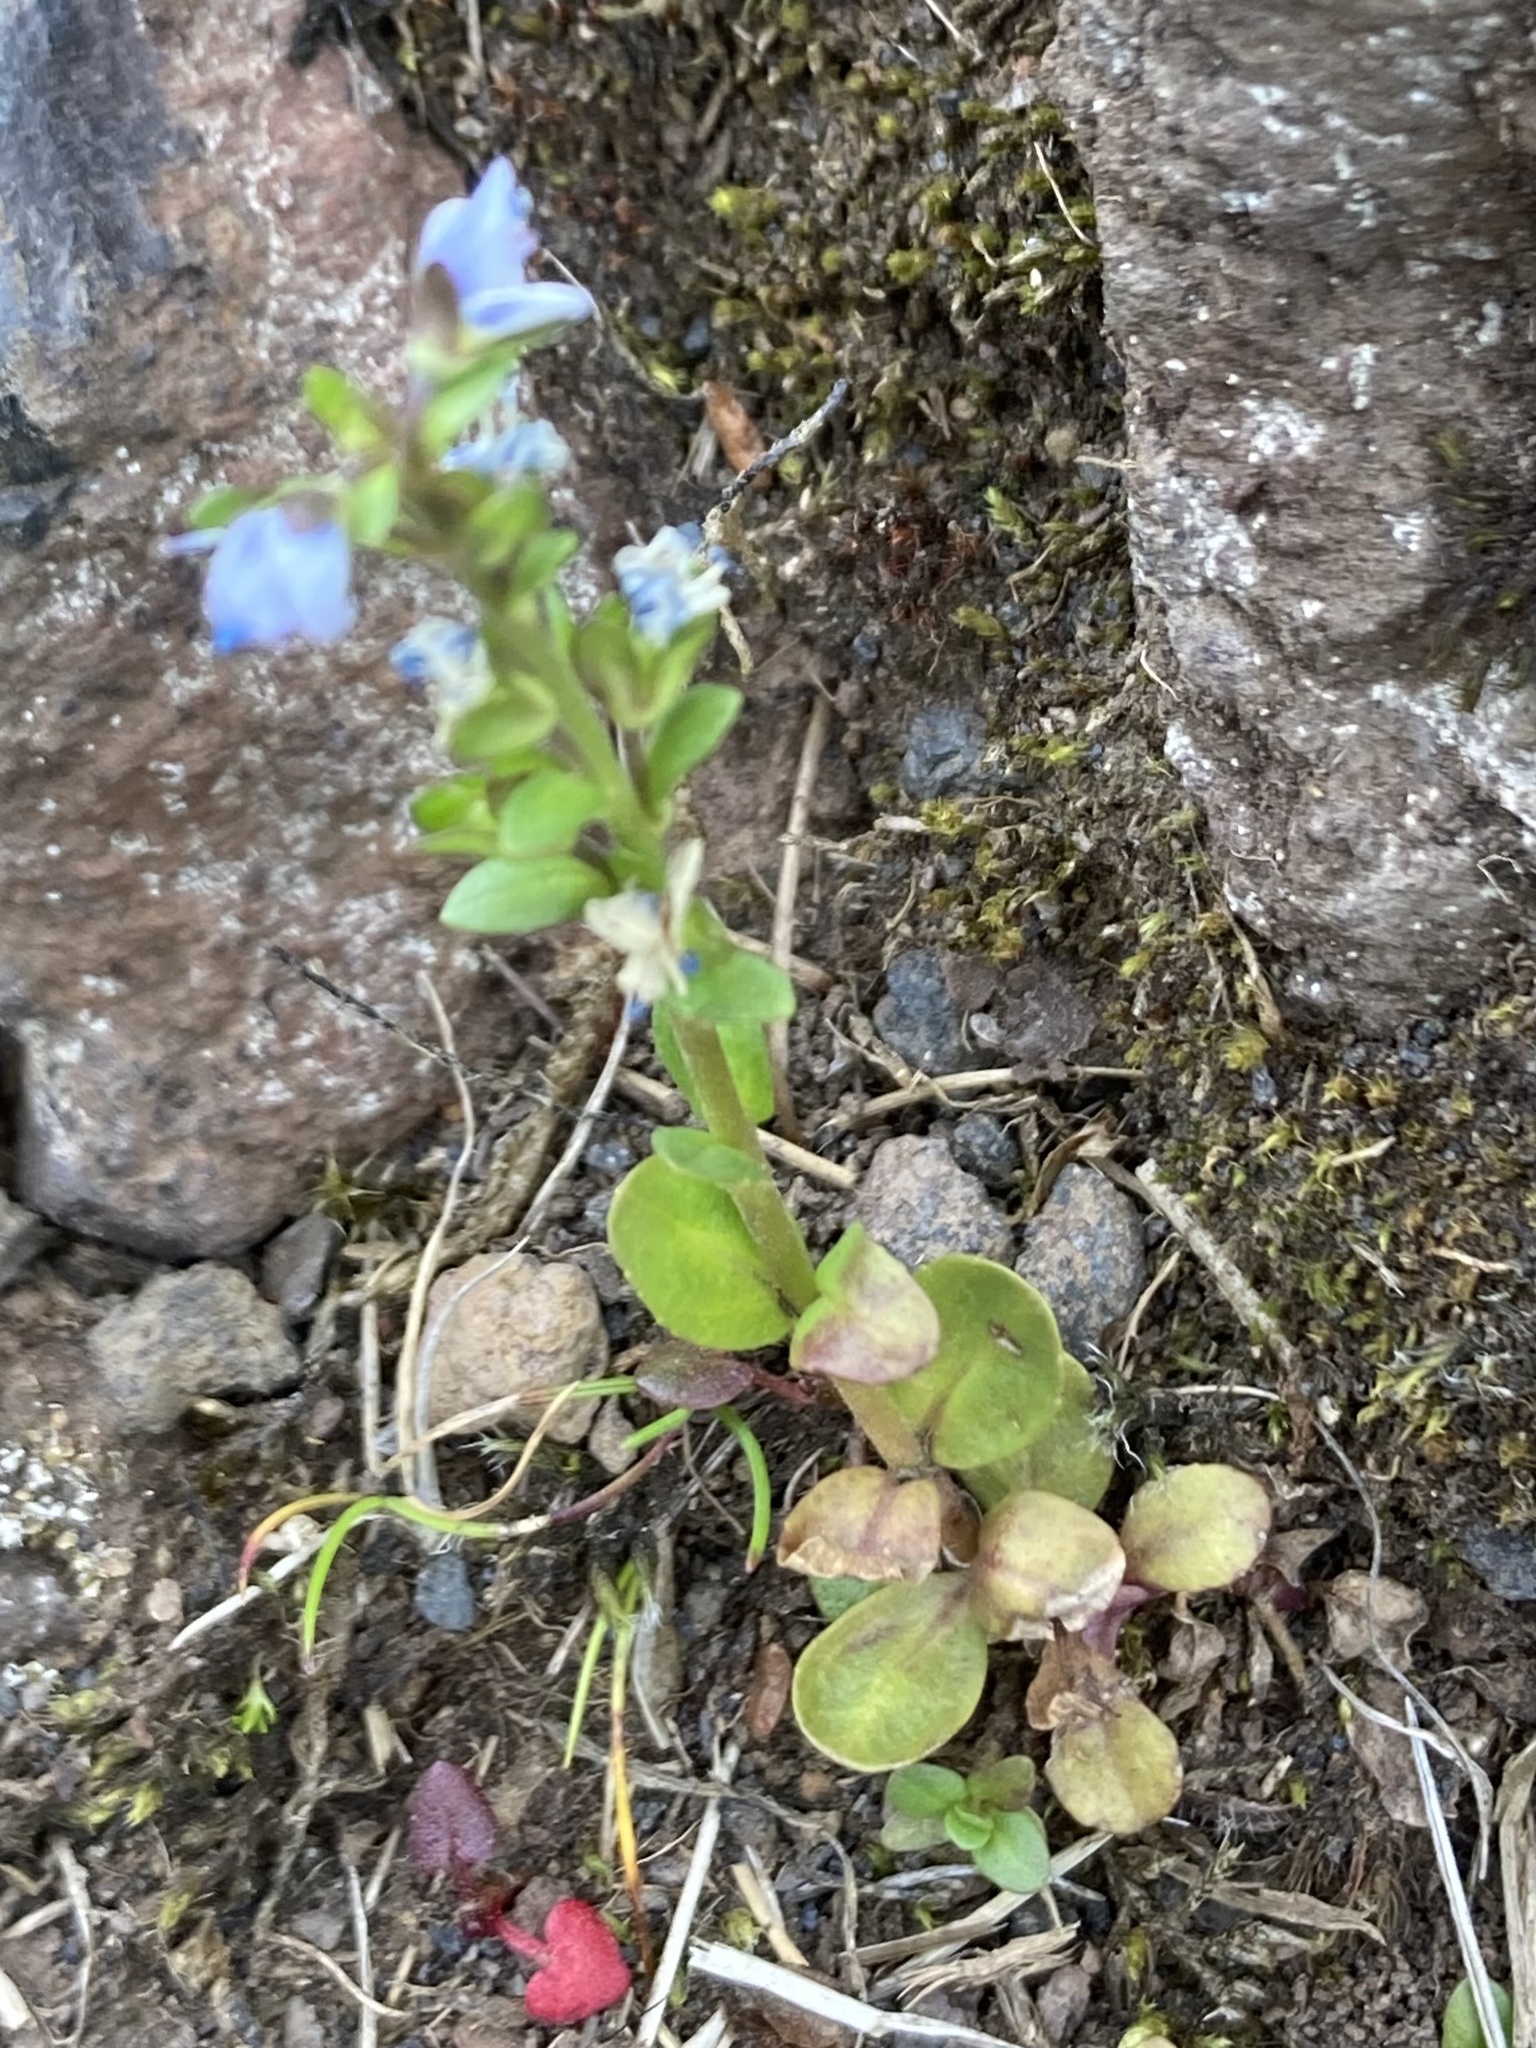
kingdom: Plantae
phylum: Tracheophyta
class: Magnoliopsida
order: Lamiales
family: Plantaginaceae
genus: Veronica
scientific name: Veronica serpyllifolia
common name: Thyme-leaved speedwell
